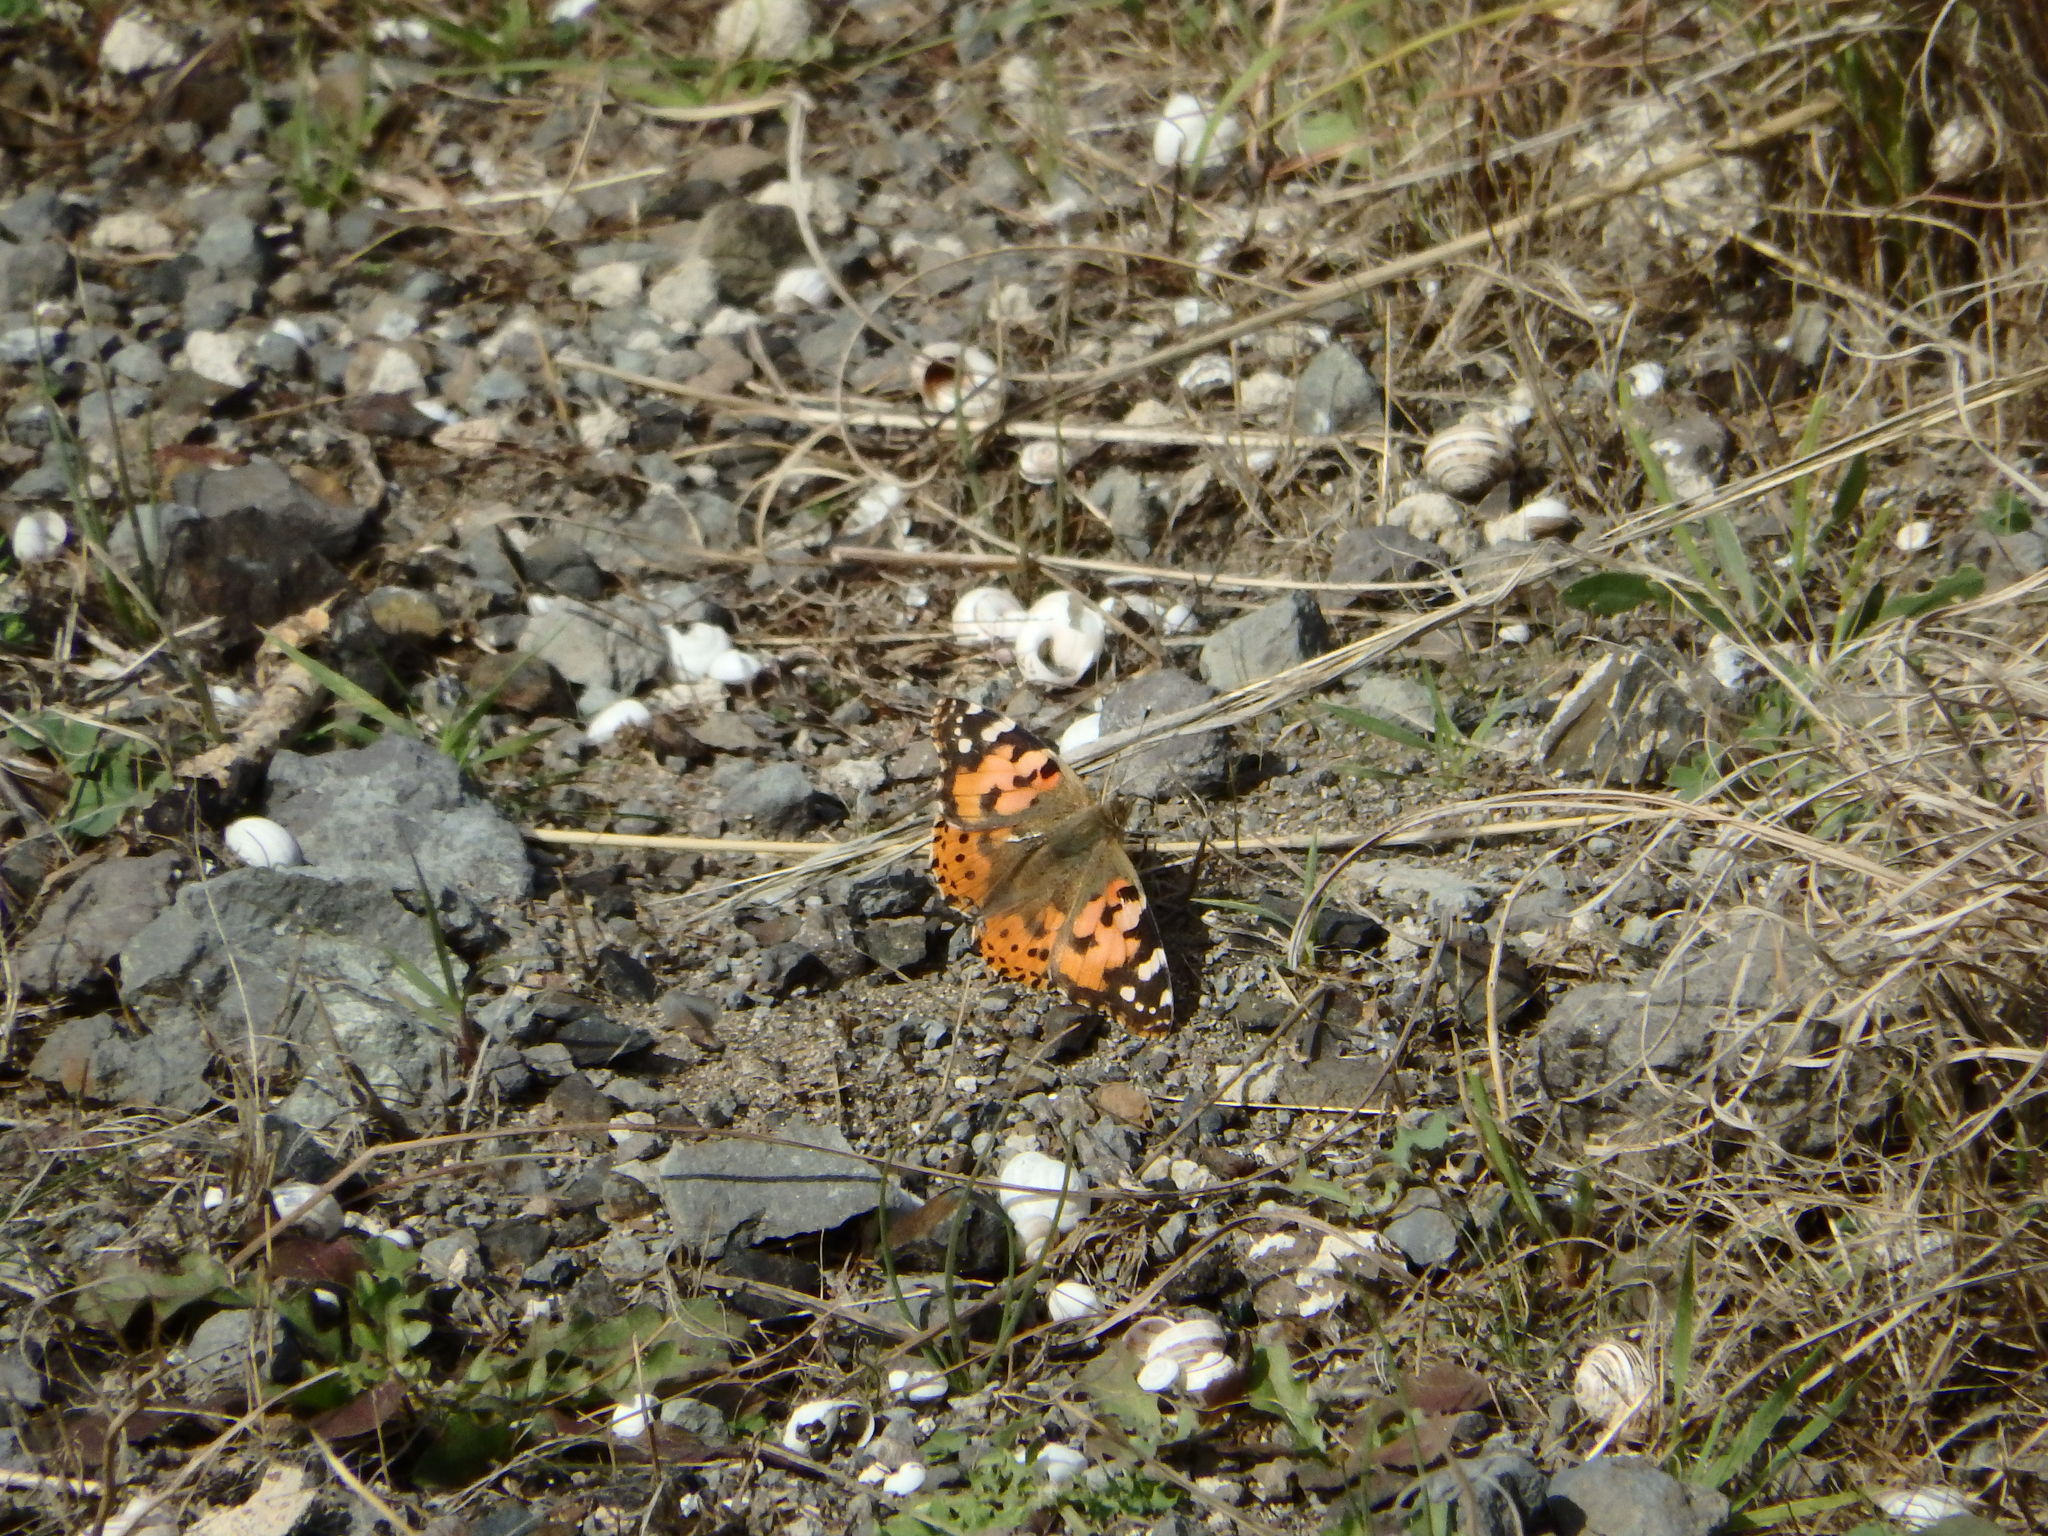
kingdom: Animalia
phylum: Arthropoda
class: Insecta
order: Lepidoptera
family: Nymphalidae
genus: Vanessa
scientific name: Vanessa cardui
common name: Painted lady
